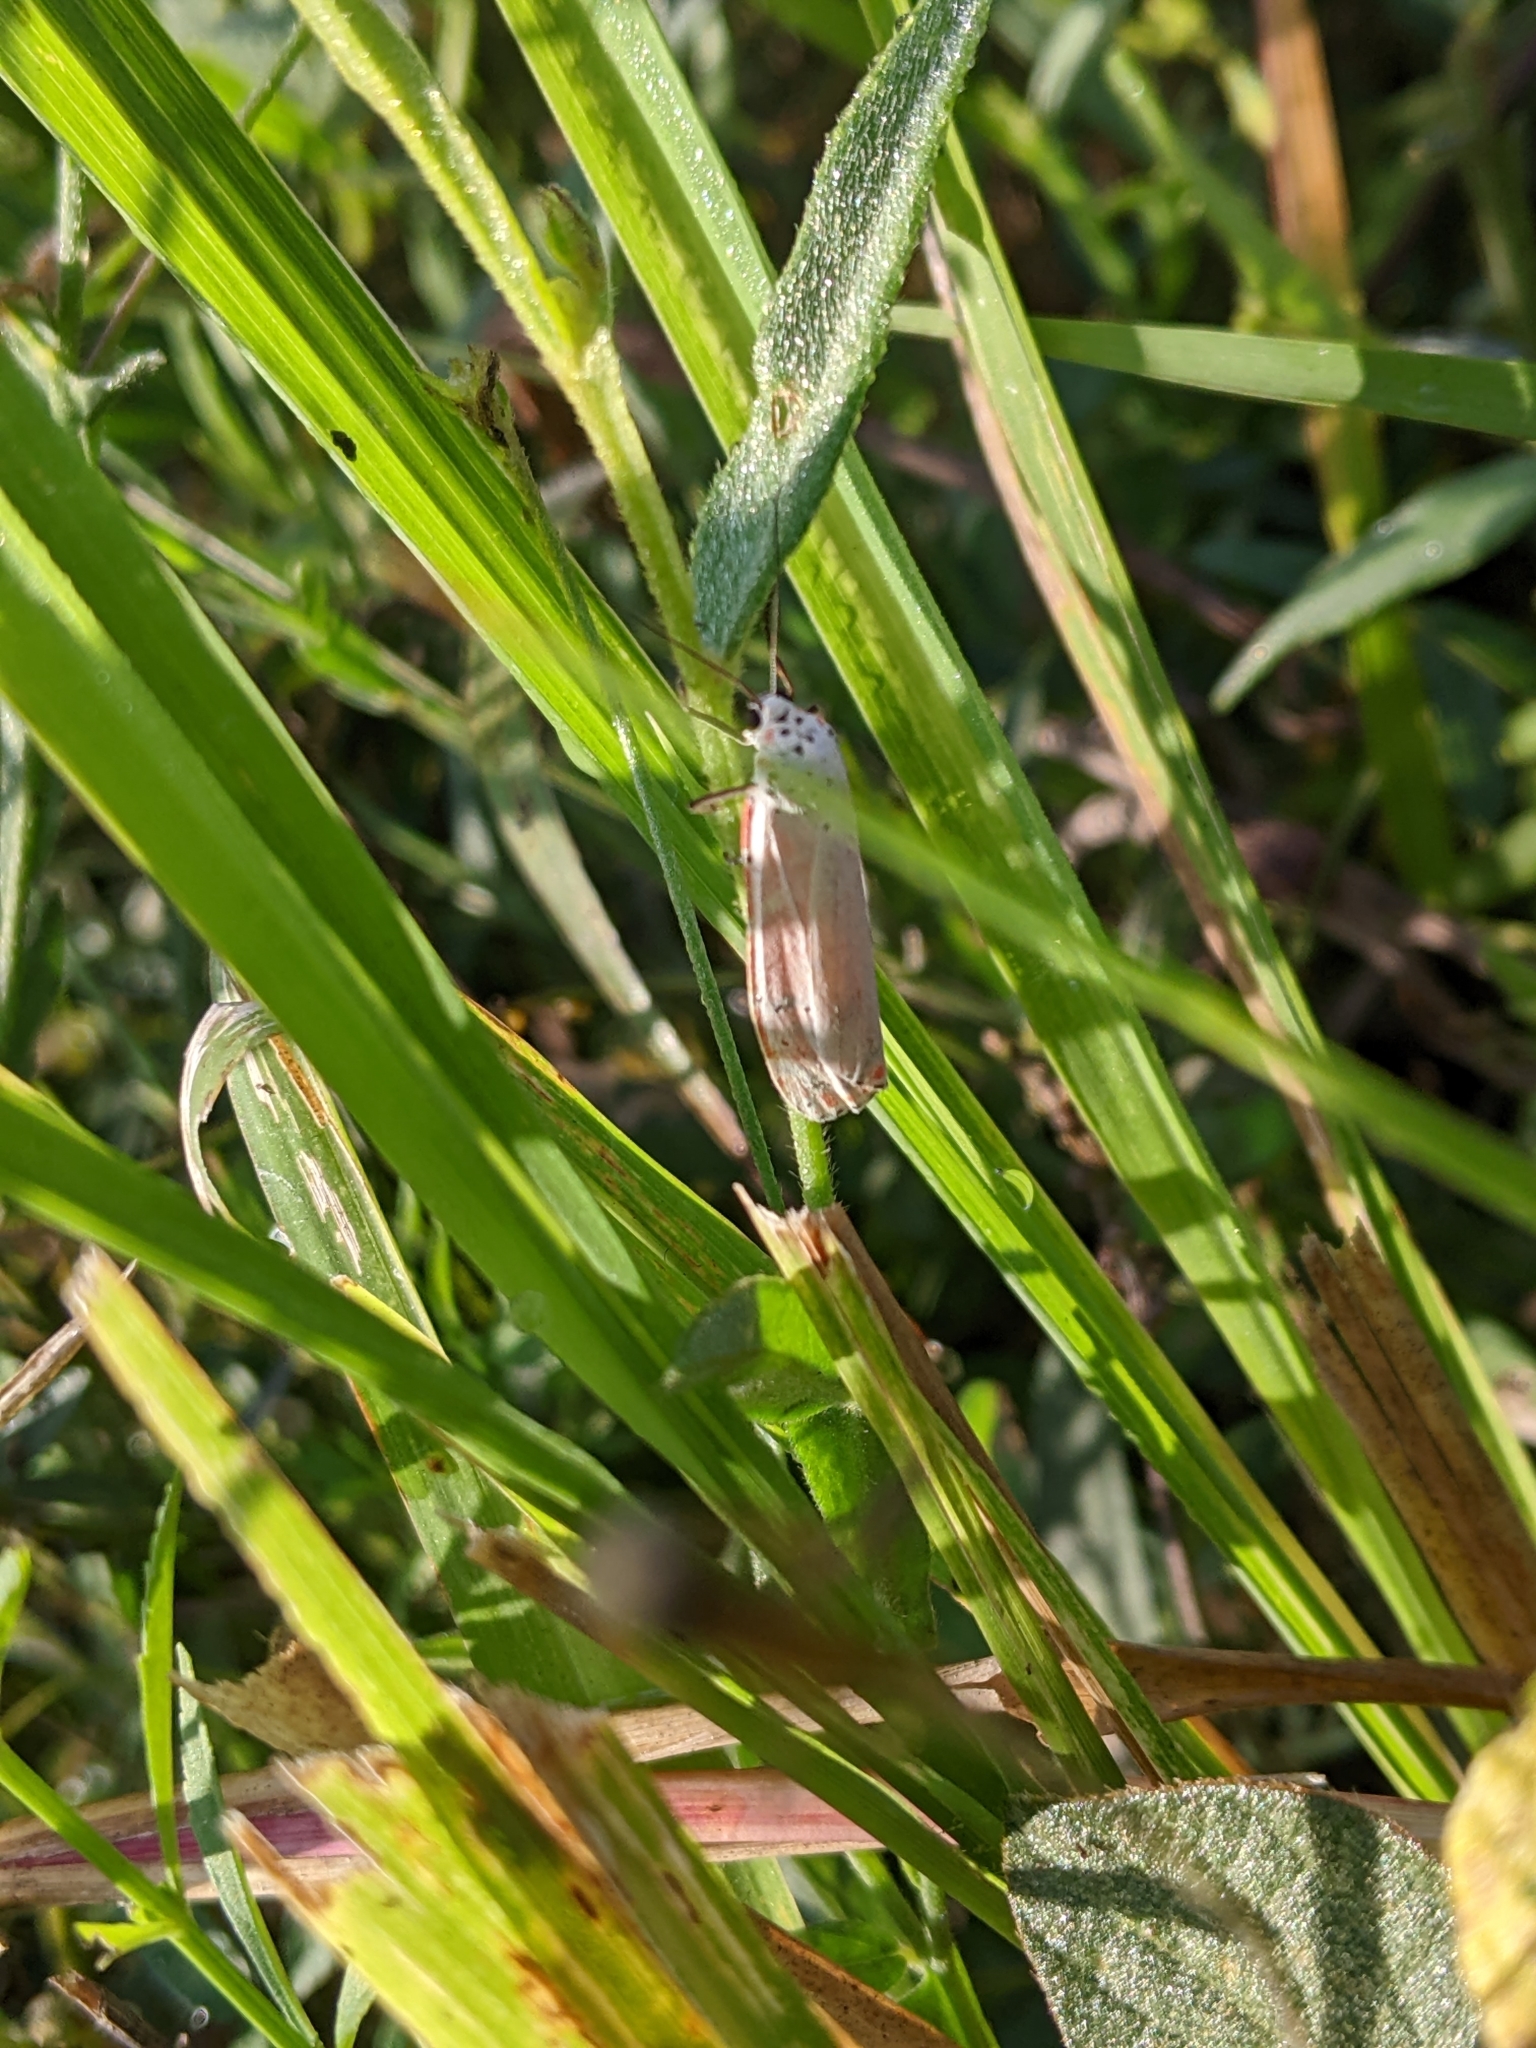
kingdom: Animalia
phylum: Arthropoda
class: Insecta
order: Lepidoptera
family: Erebidae
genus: Utetheisa
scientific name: Utetheisa ornatrix
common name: Beautiful utetheisa
